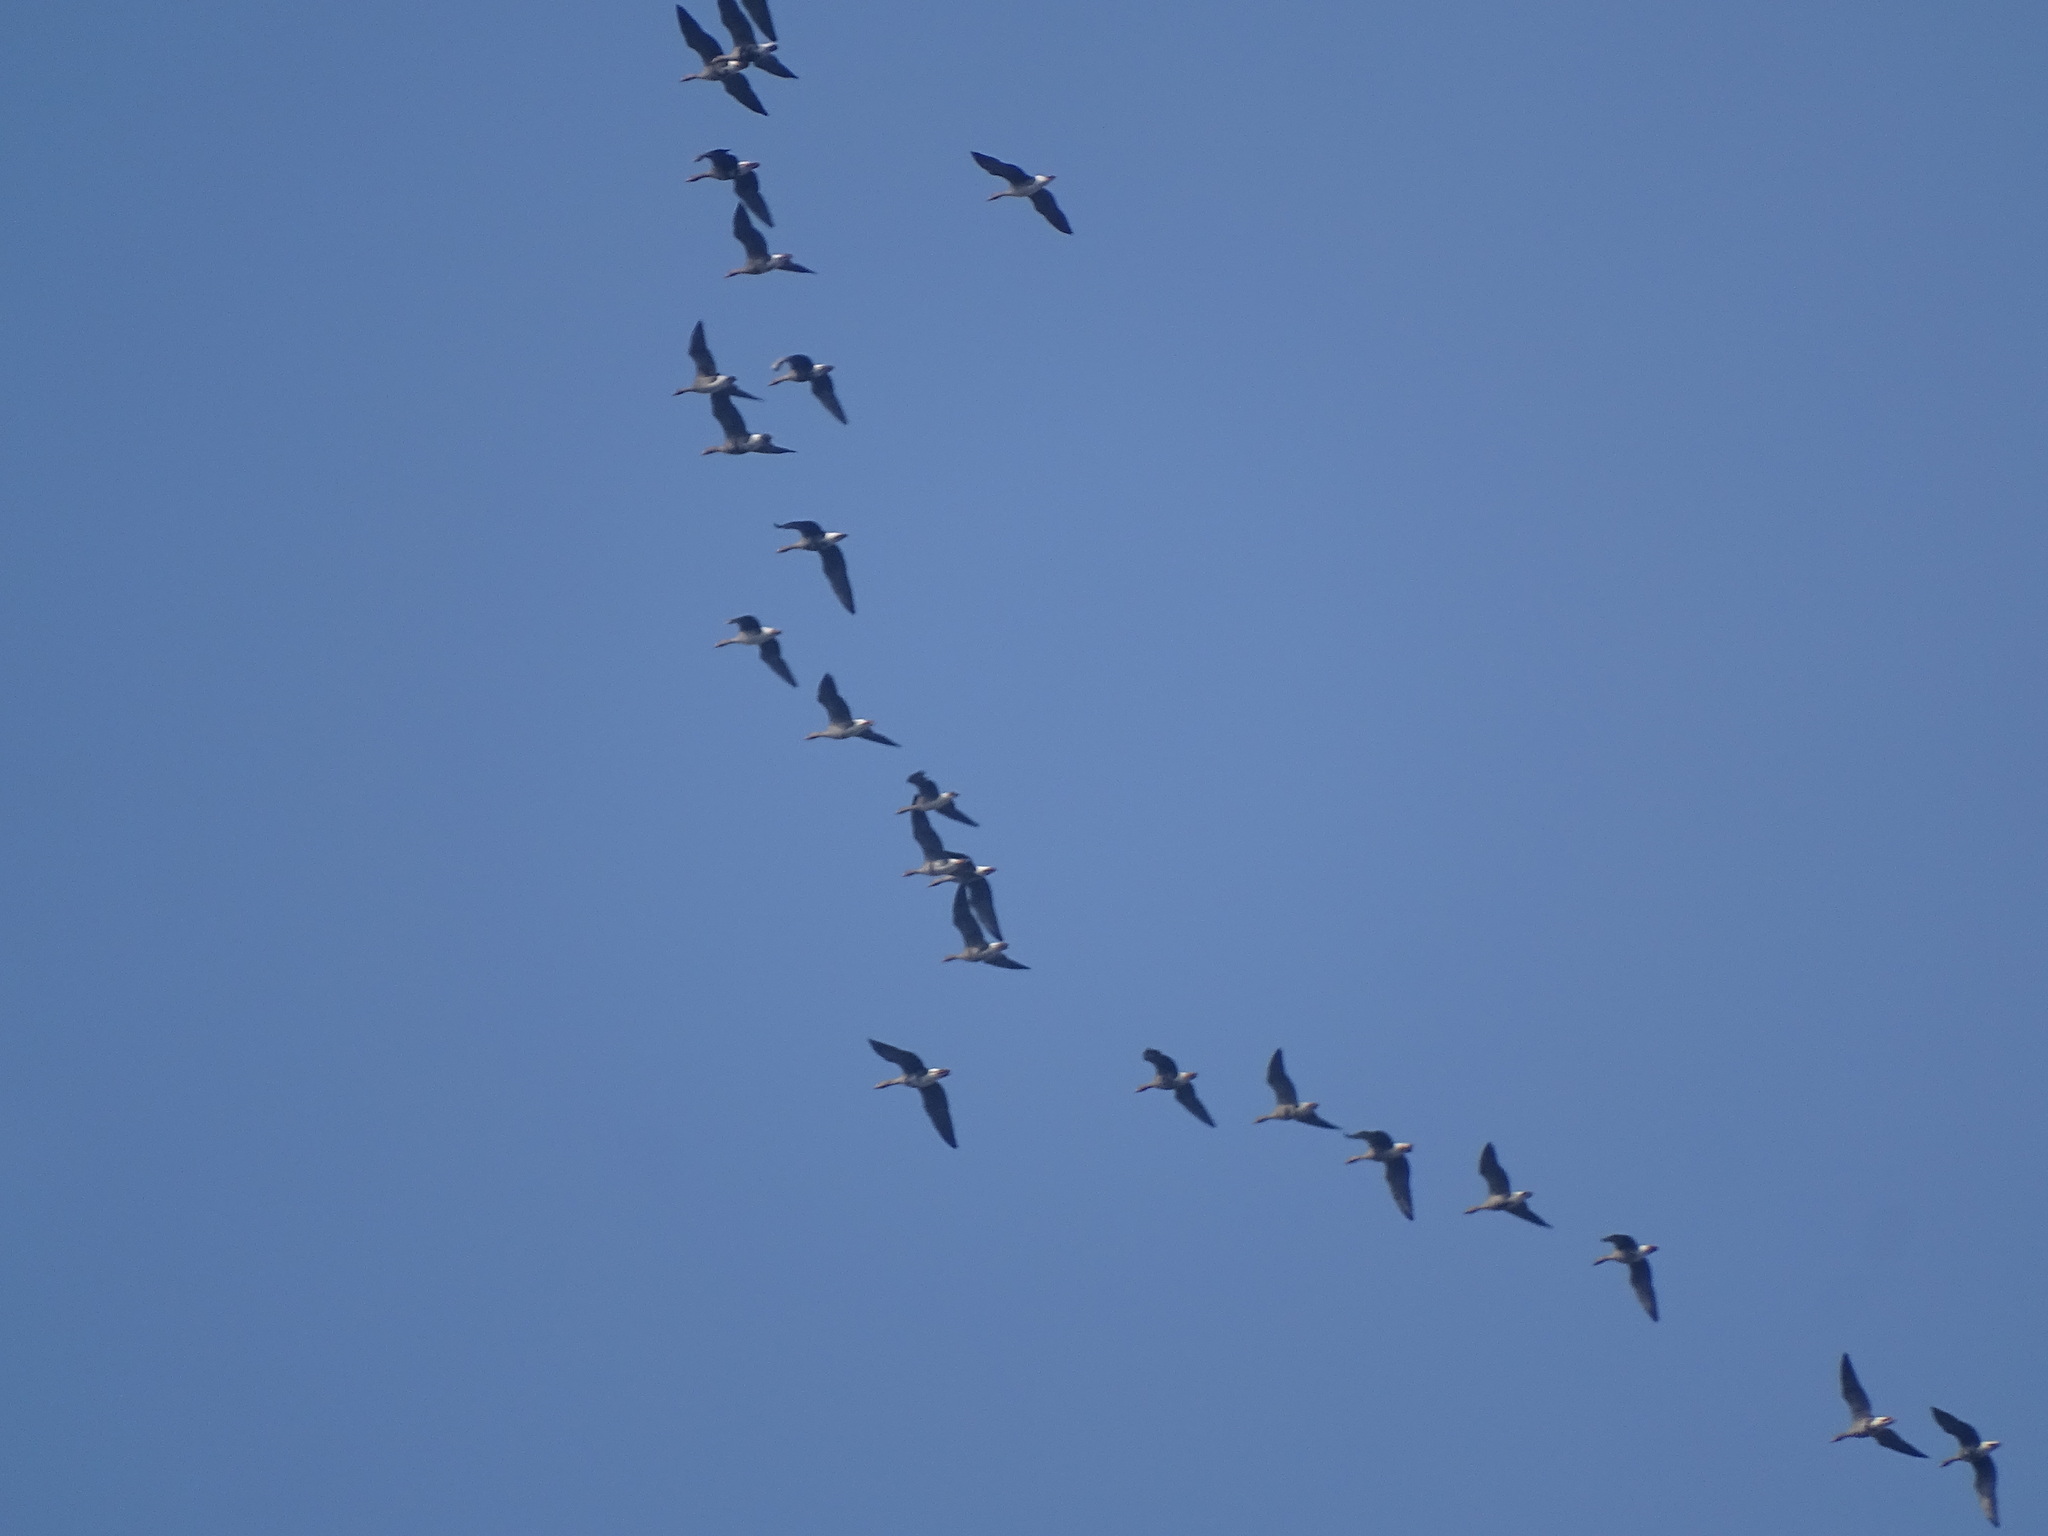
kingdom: Animalia
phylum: Chordata
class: Aves
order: Anseriformes
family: Anatidae
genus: Anser
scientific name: Anser albifrons
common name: Greater white-fronted goose
